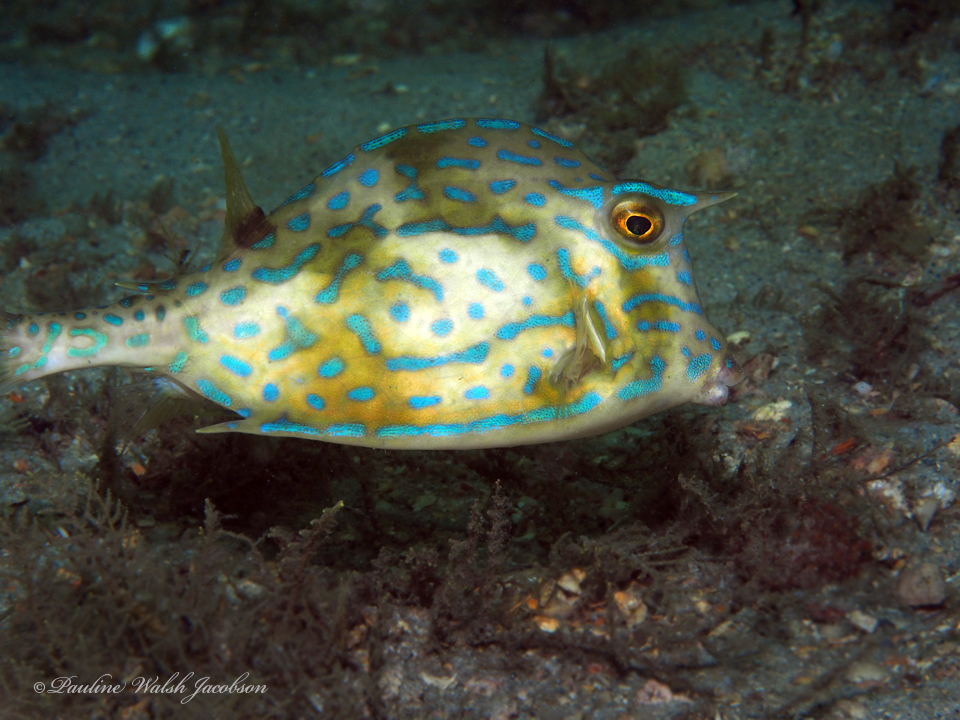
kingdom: Animalia
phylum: Chordata
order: Tetraodontiformes
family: Ostraciidae
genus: Acanthostracion
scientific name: Acanthostracion quadricornis
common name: Scrawled cowfish
